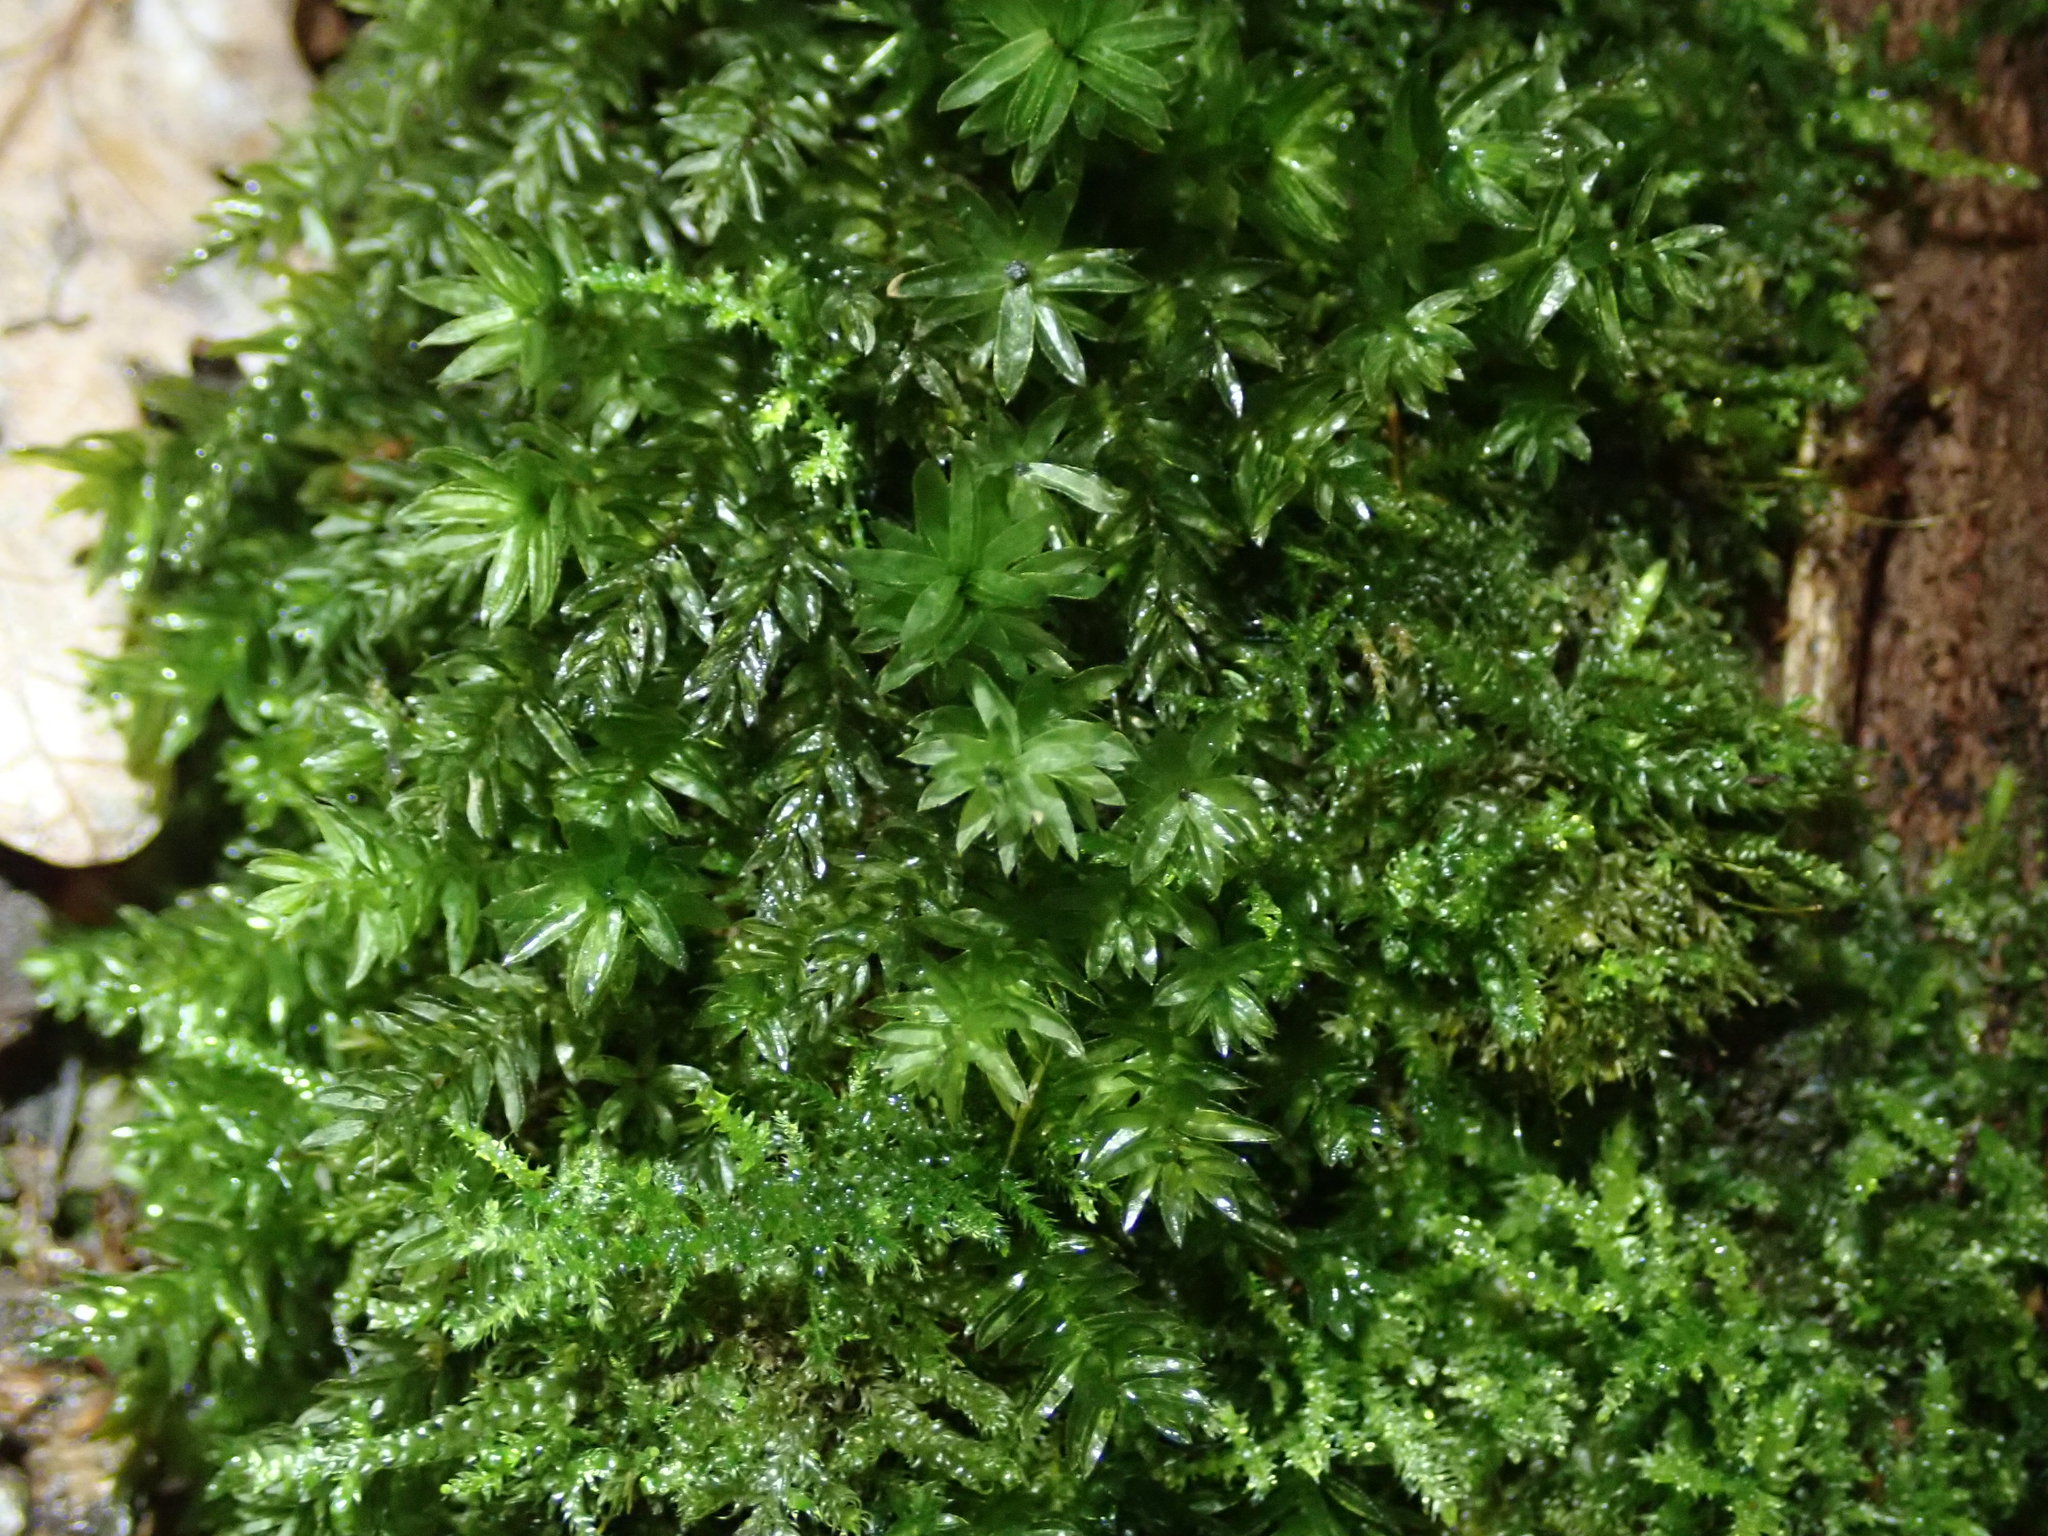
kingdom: Plantae
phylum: Bryophyta
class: Bryopsida
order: Bryales
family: Mniaceae
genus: Mnium
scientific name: Mnium hornum
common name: Swan's-neck leafy moss
